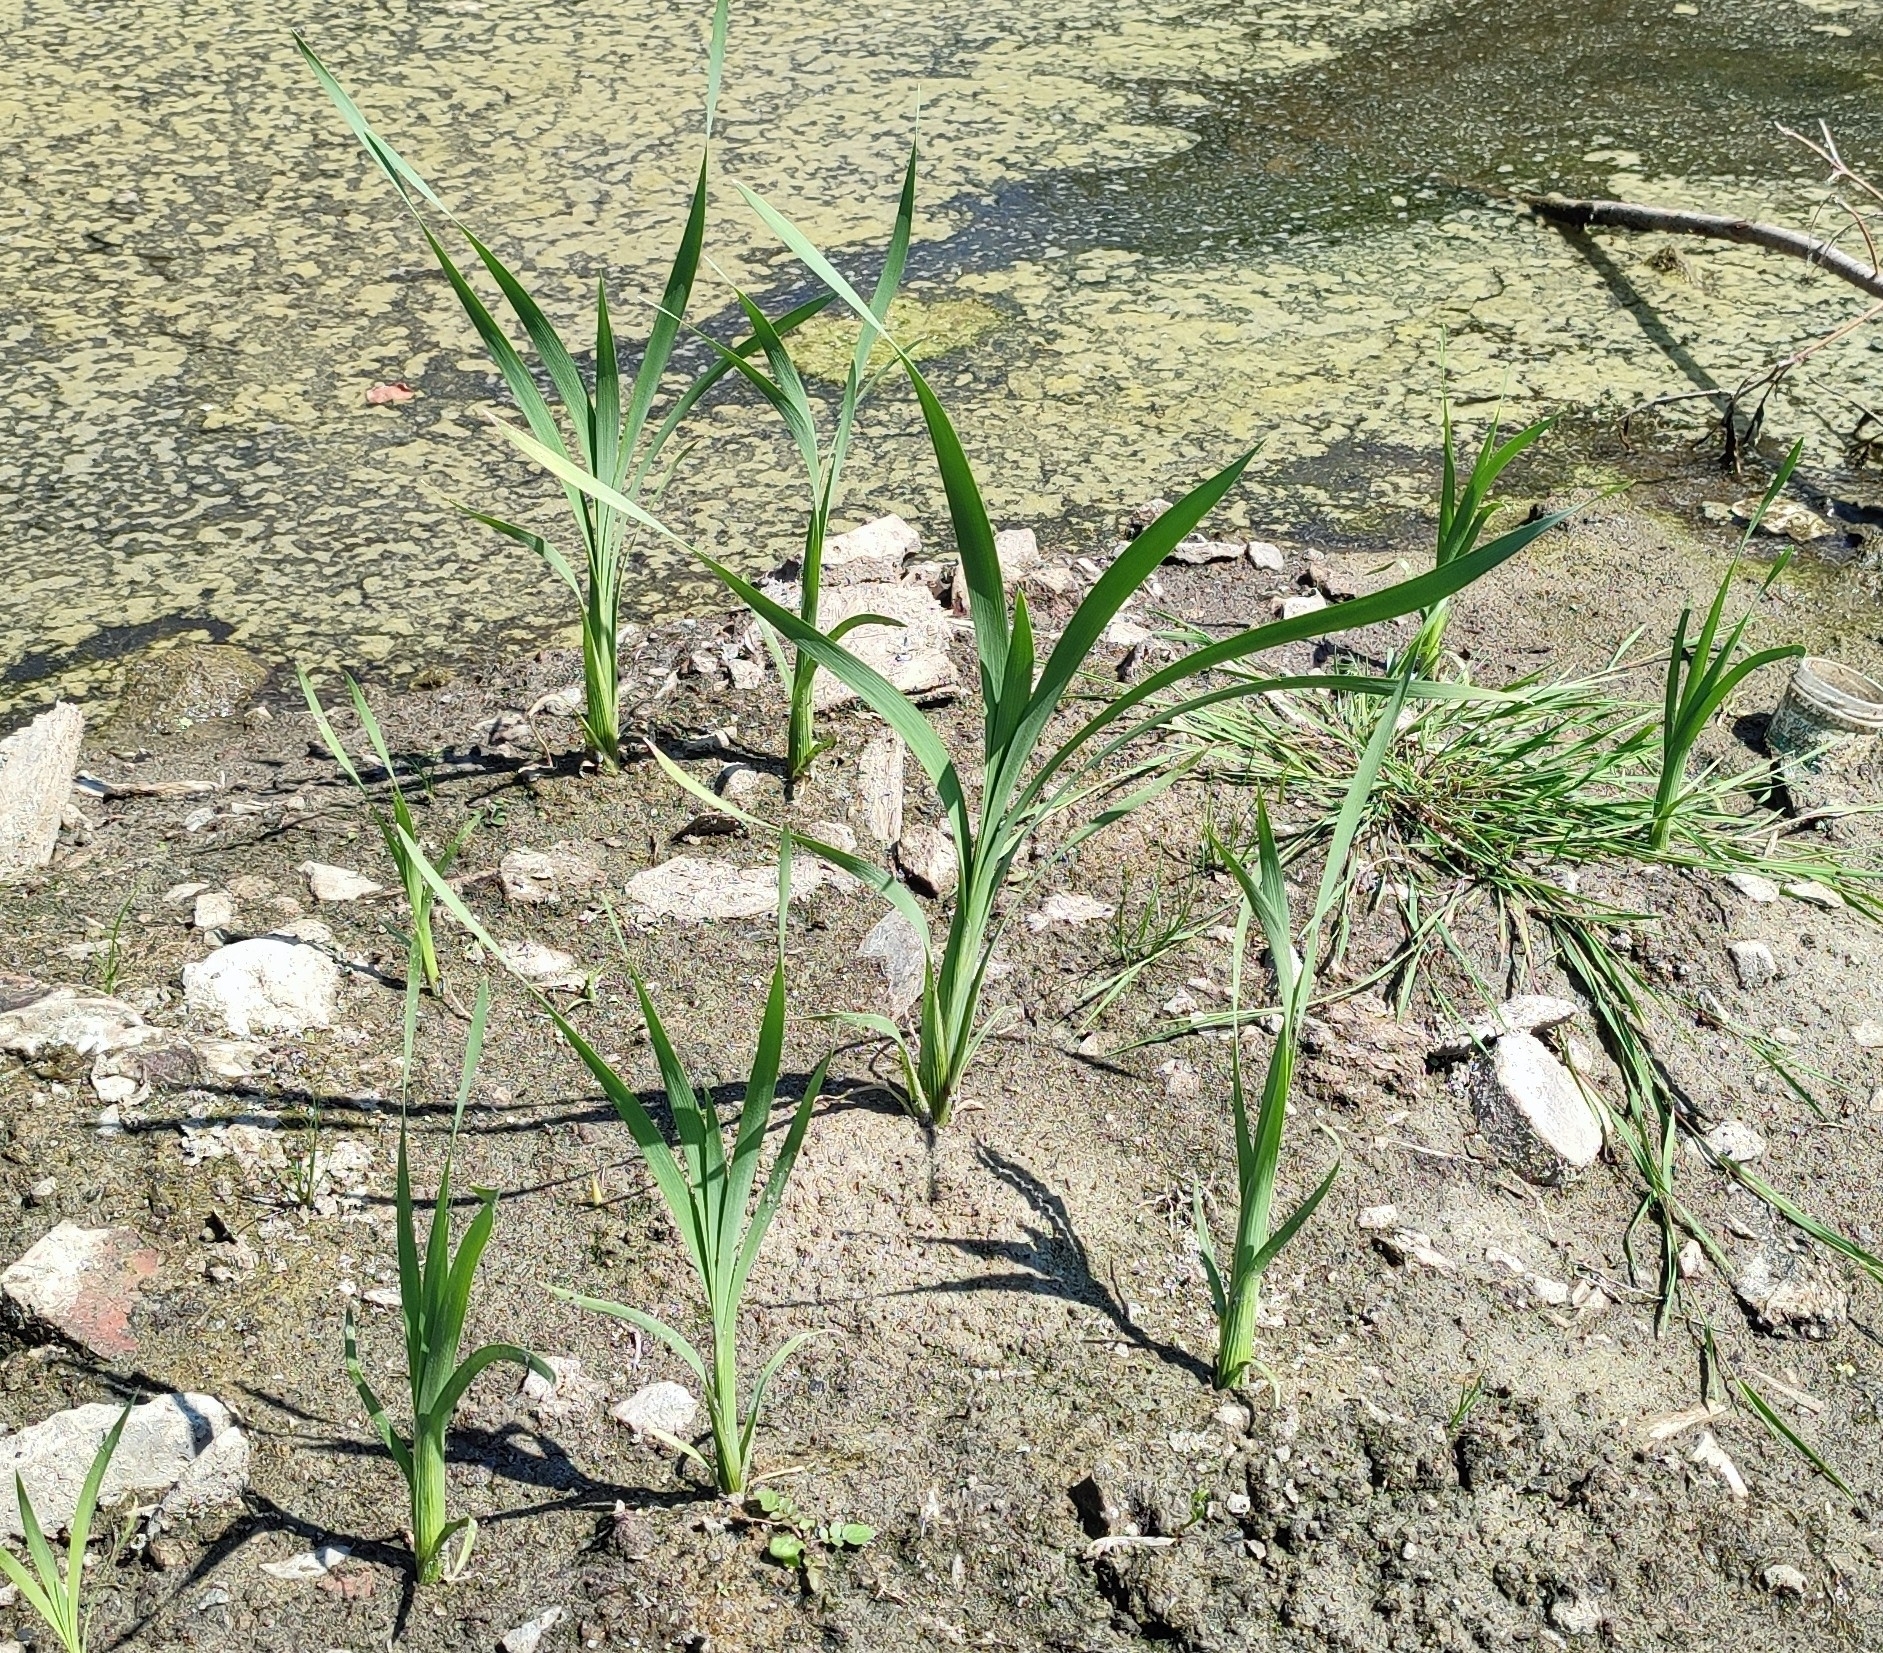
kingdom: Plantae
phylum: Tracheophyta
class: Liliopsida
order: Poales
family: Typhaceae
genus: Typha
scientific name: Typha latifolia
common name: Broadleaf cattail
